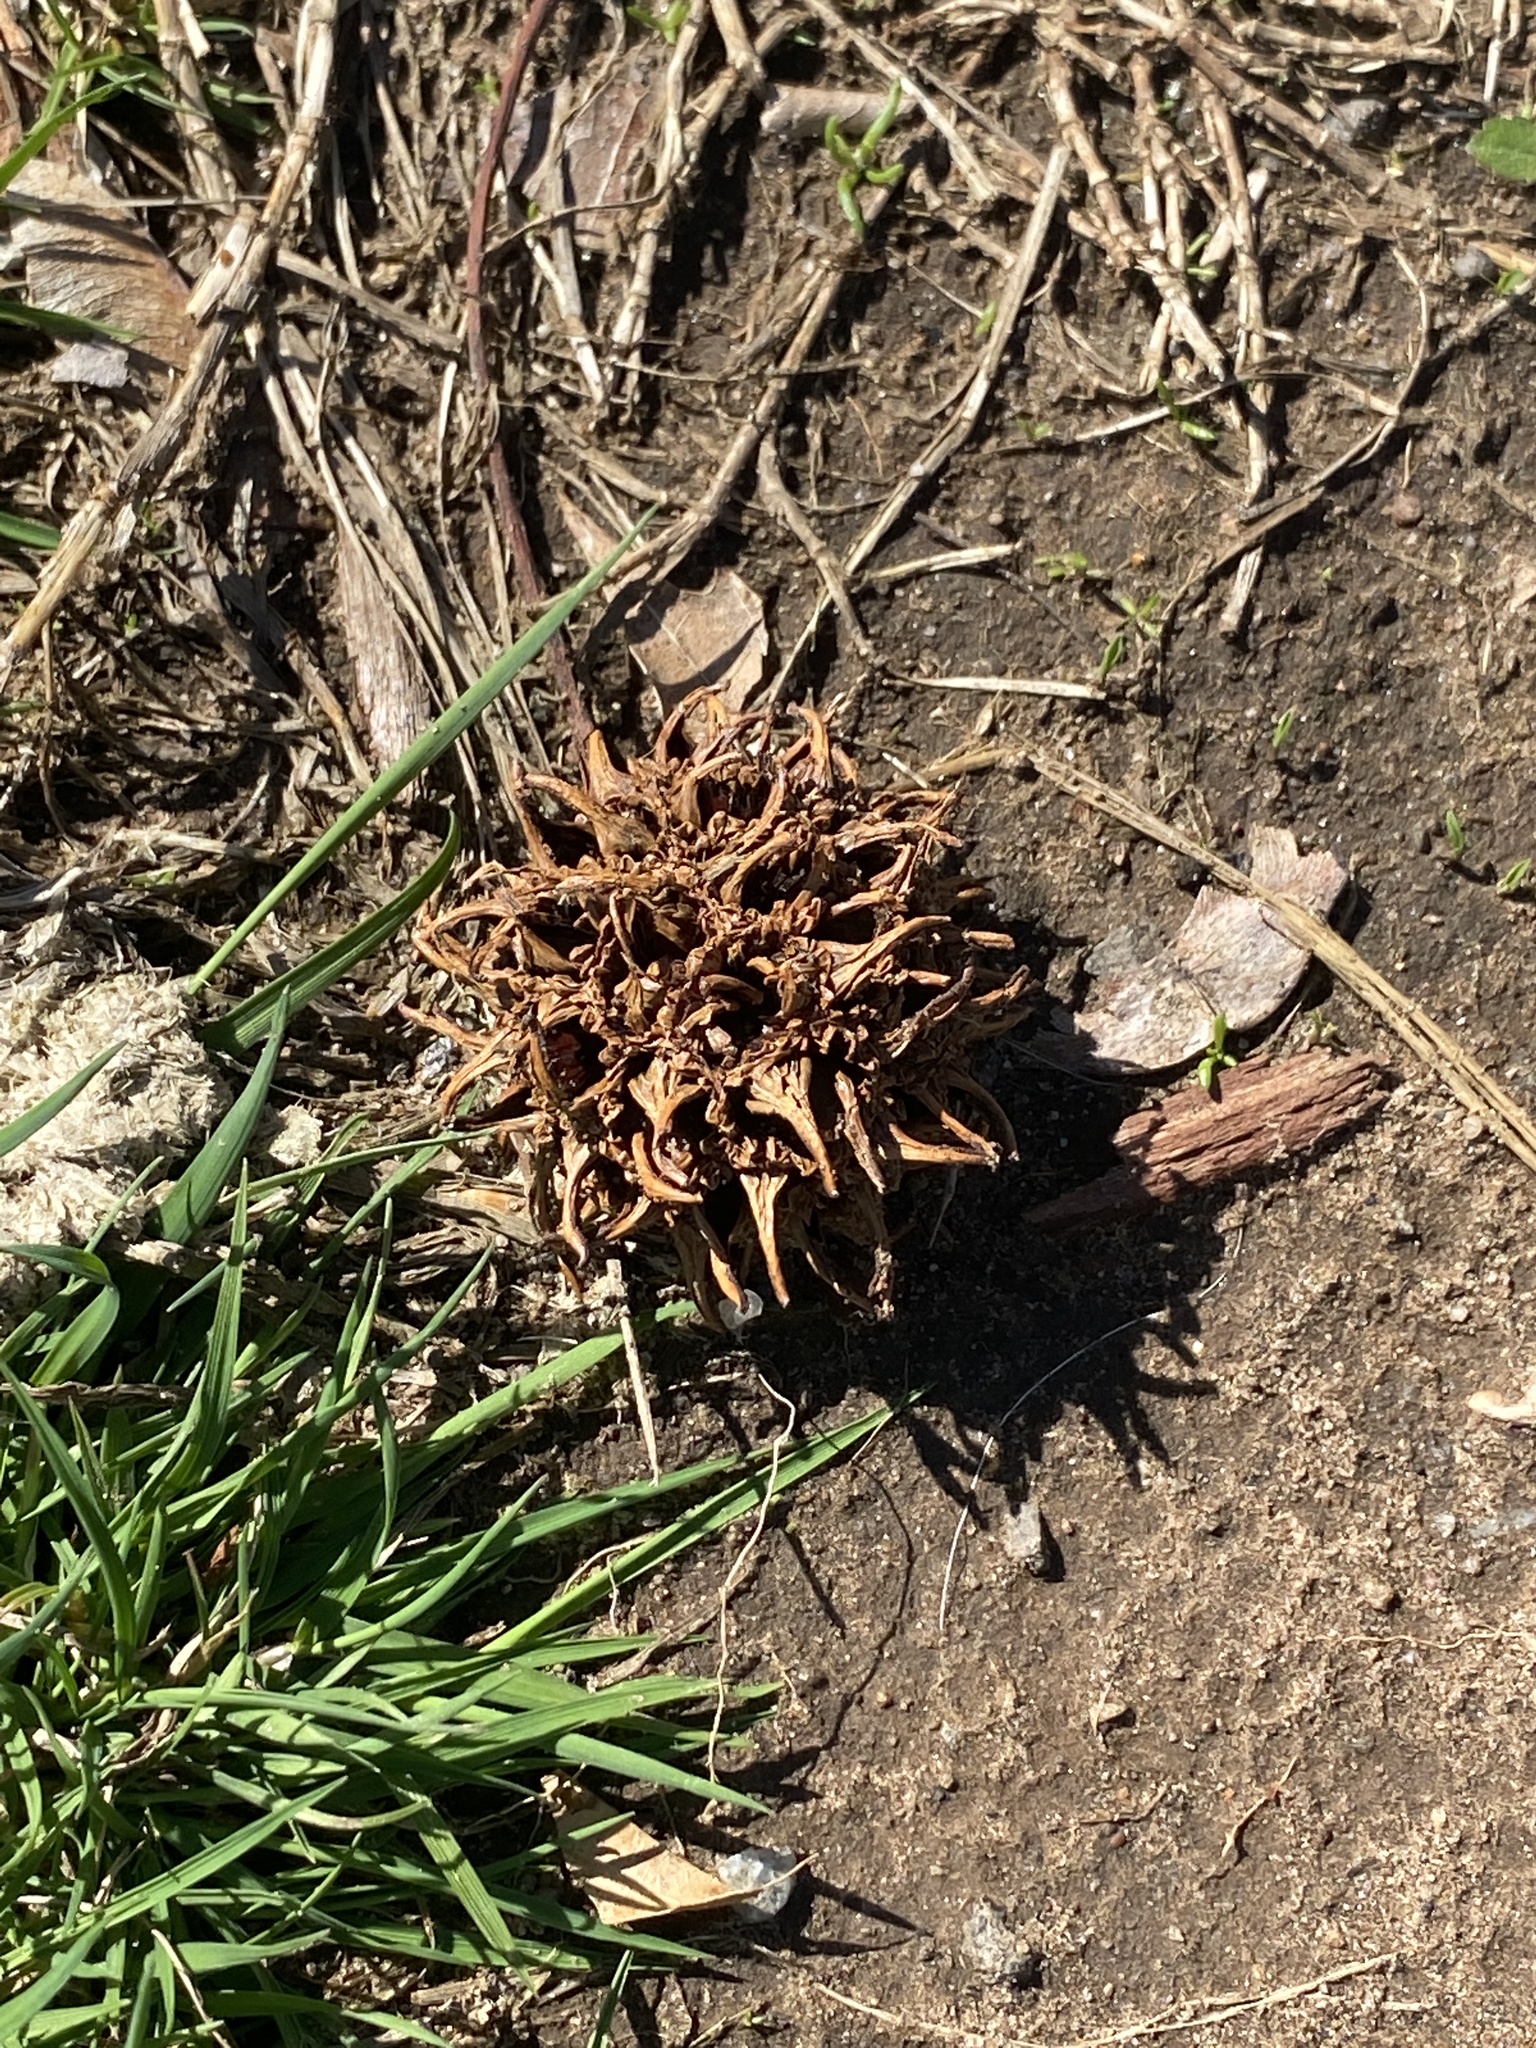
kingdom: Plantae
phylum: Tracheophyta
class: Magnoliopsida
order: Saxifragales
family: Altingiaceae
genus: Liquidambar
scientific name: Liquidambar styraciflua
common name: Sweet gum
